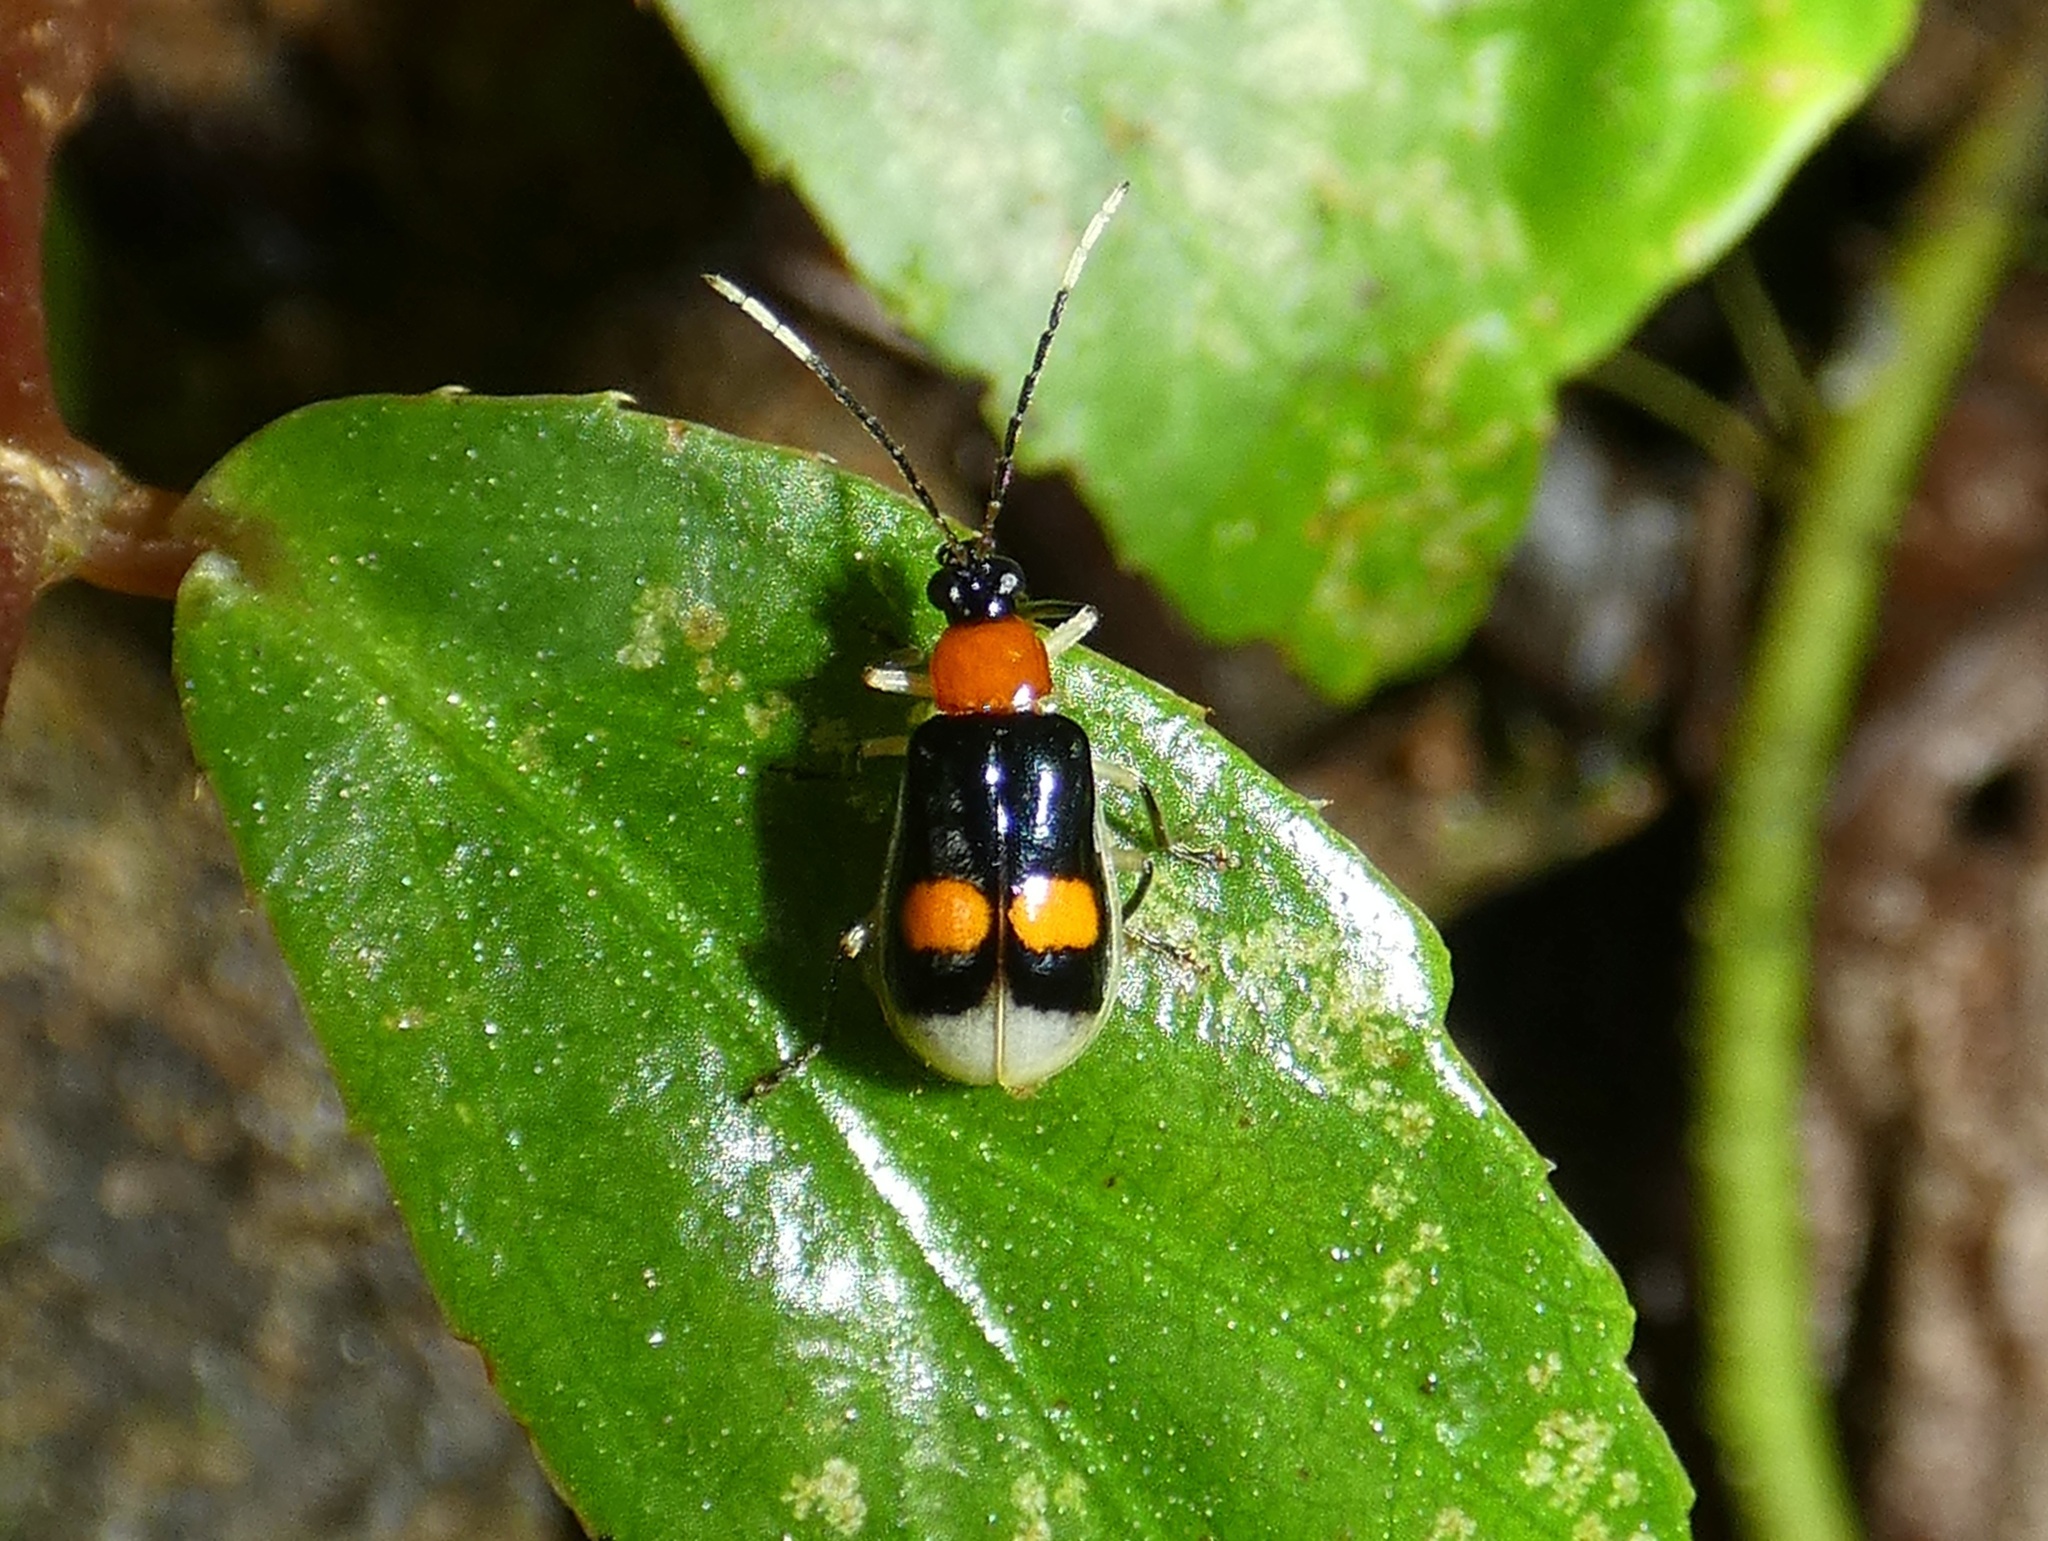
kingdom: Animalia
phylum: Arthropoda
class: Insecta
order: Coleoptera
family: Chrysomelidae
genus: Diabrotica
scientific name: Diabrotica
